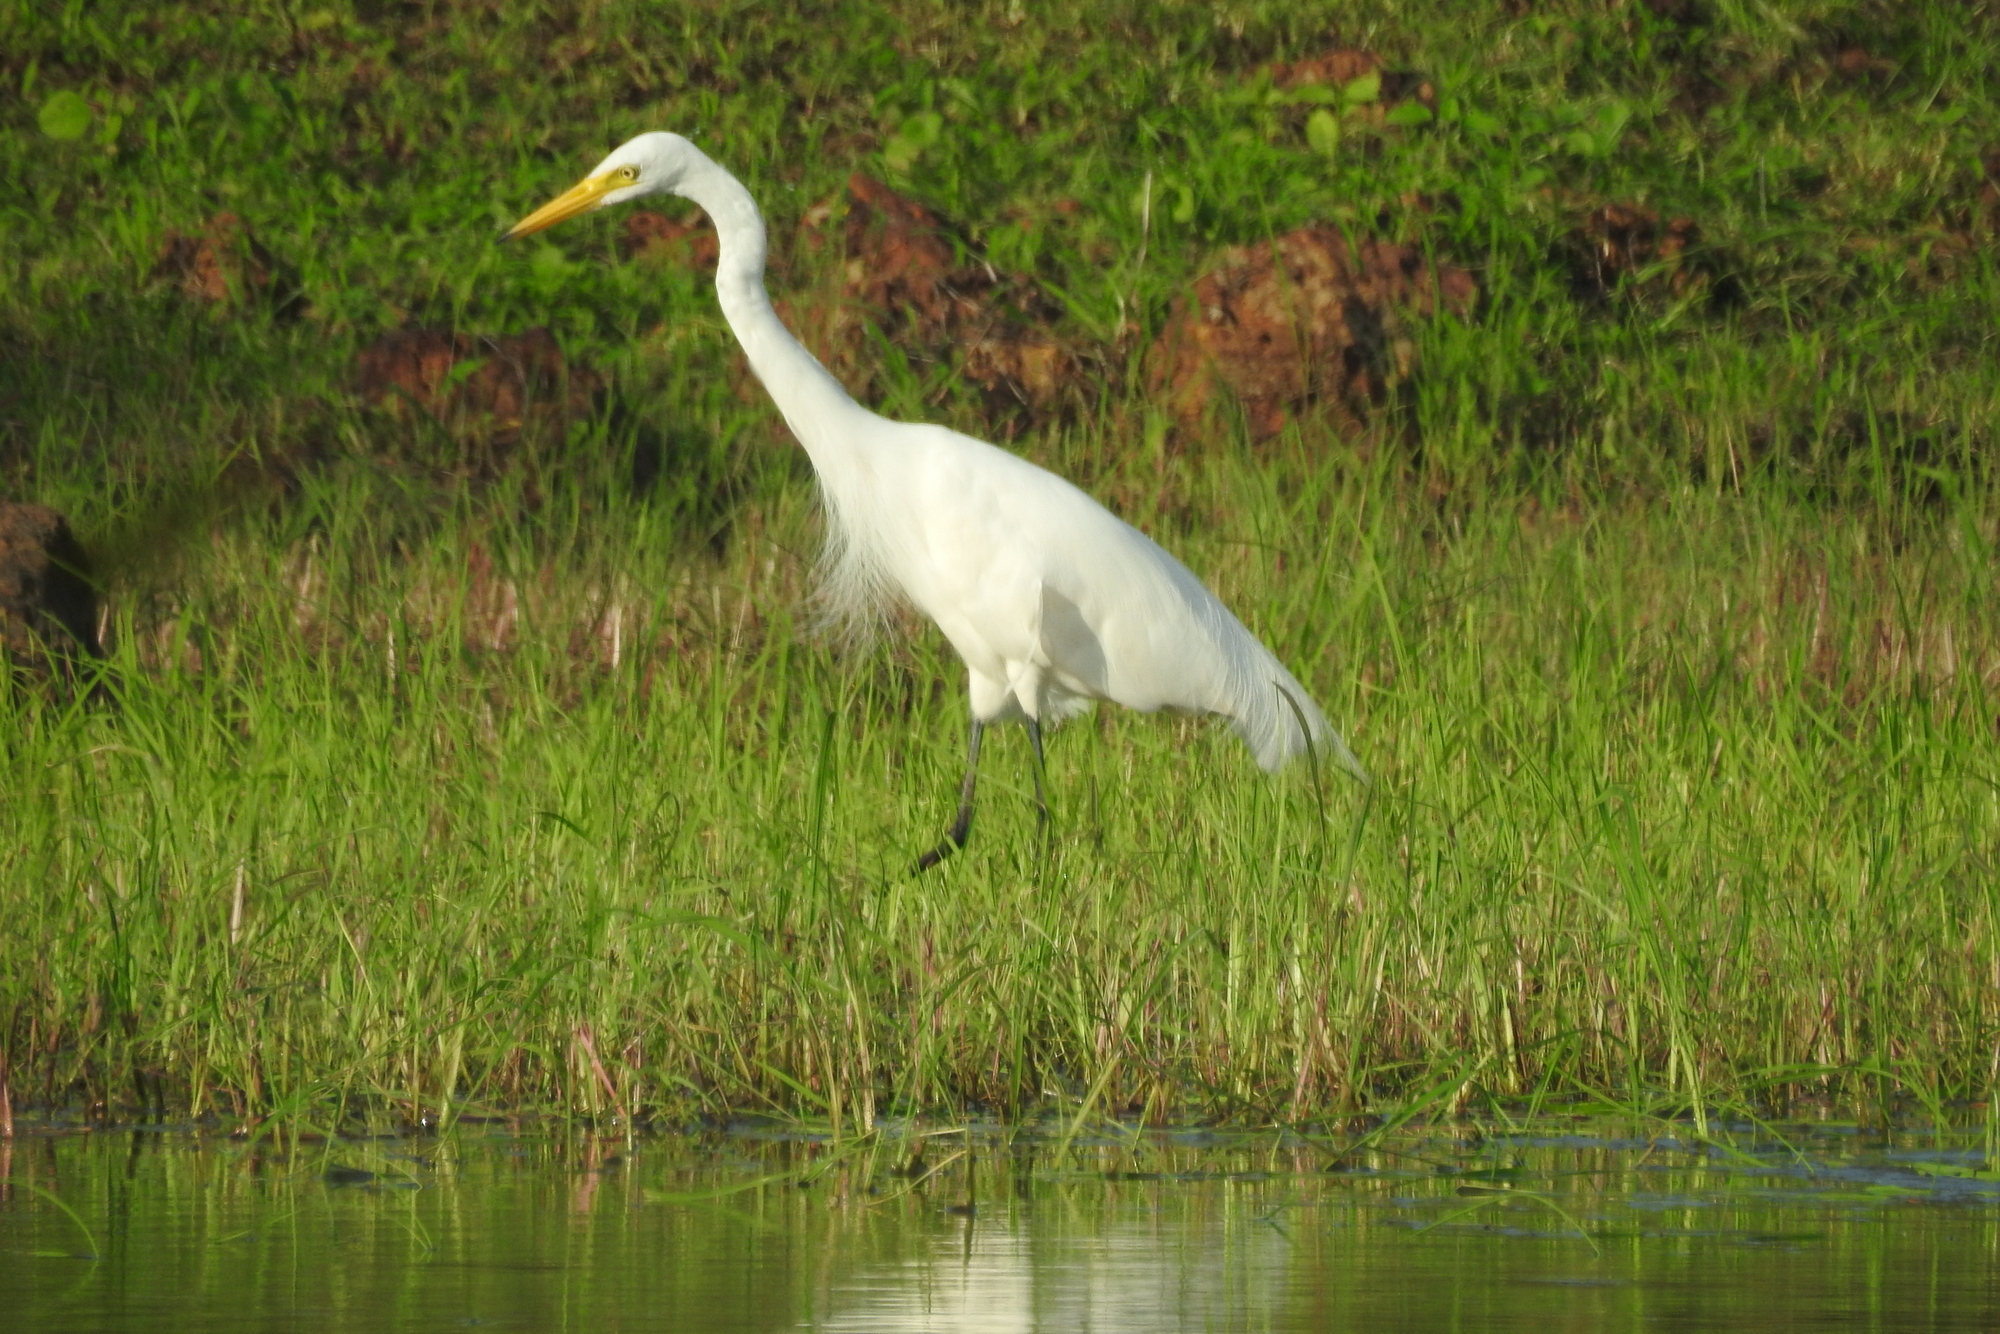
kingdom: Animalia
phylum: Chordata
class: Aves
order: Pelecaniformes
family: Ardeidae
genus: Egretta
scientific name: Egretta intermedia
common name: Intermediate egret
